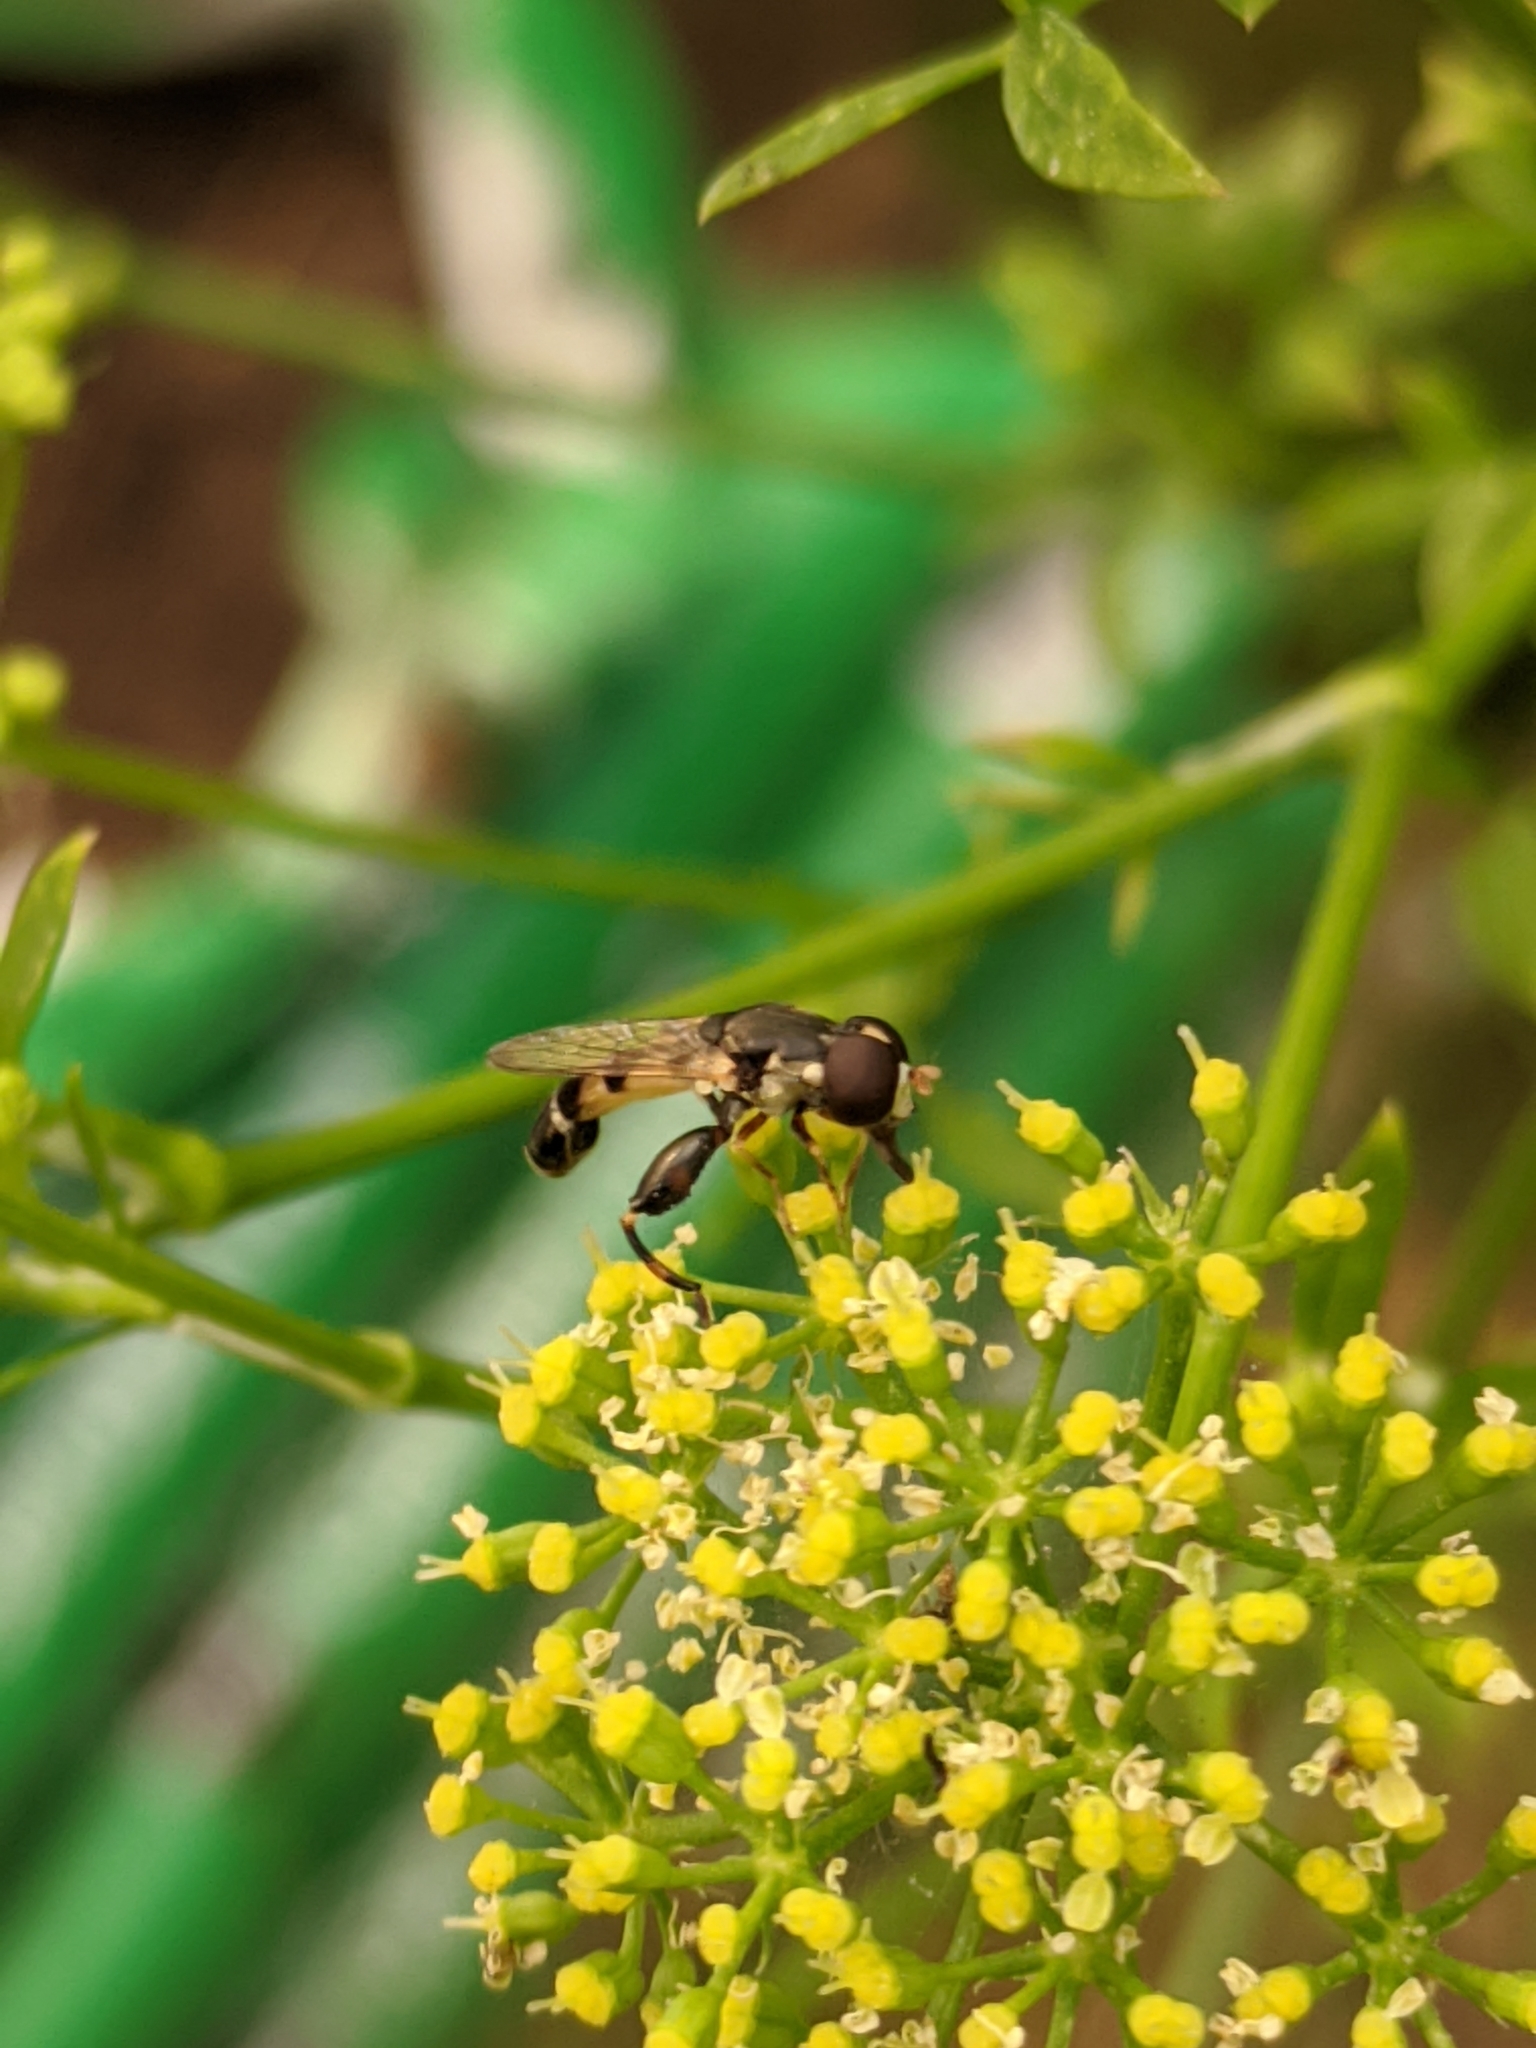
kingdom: Animalia
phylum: Arthropoda
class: Insecta
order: Diptera
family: Syrphidae
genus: Syritta
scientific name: Syritta pipiens
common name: Hover fly
